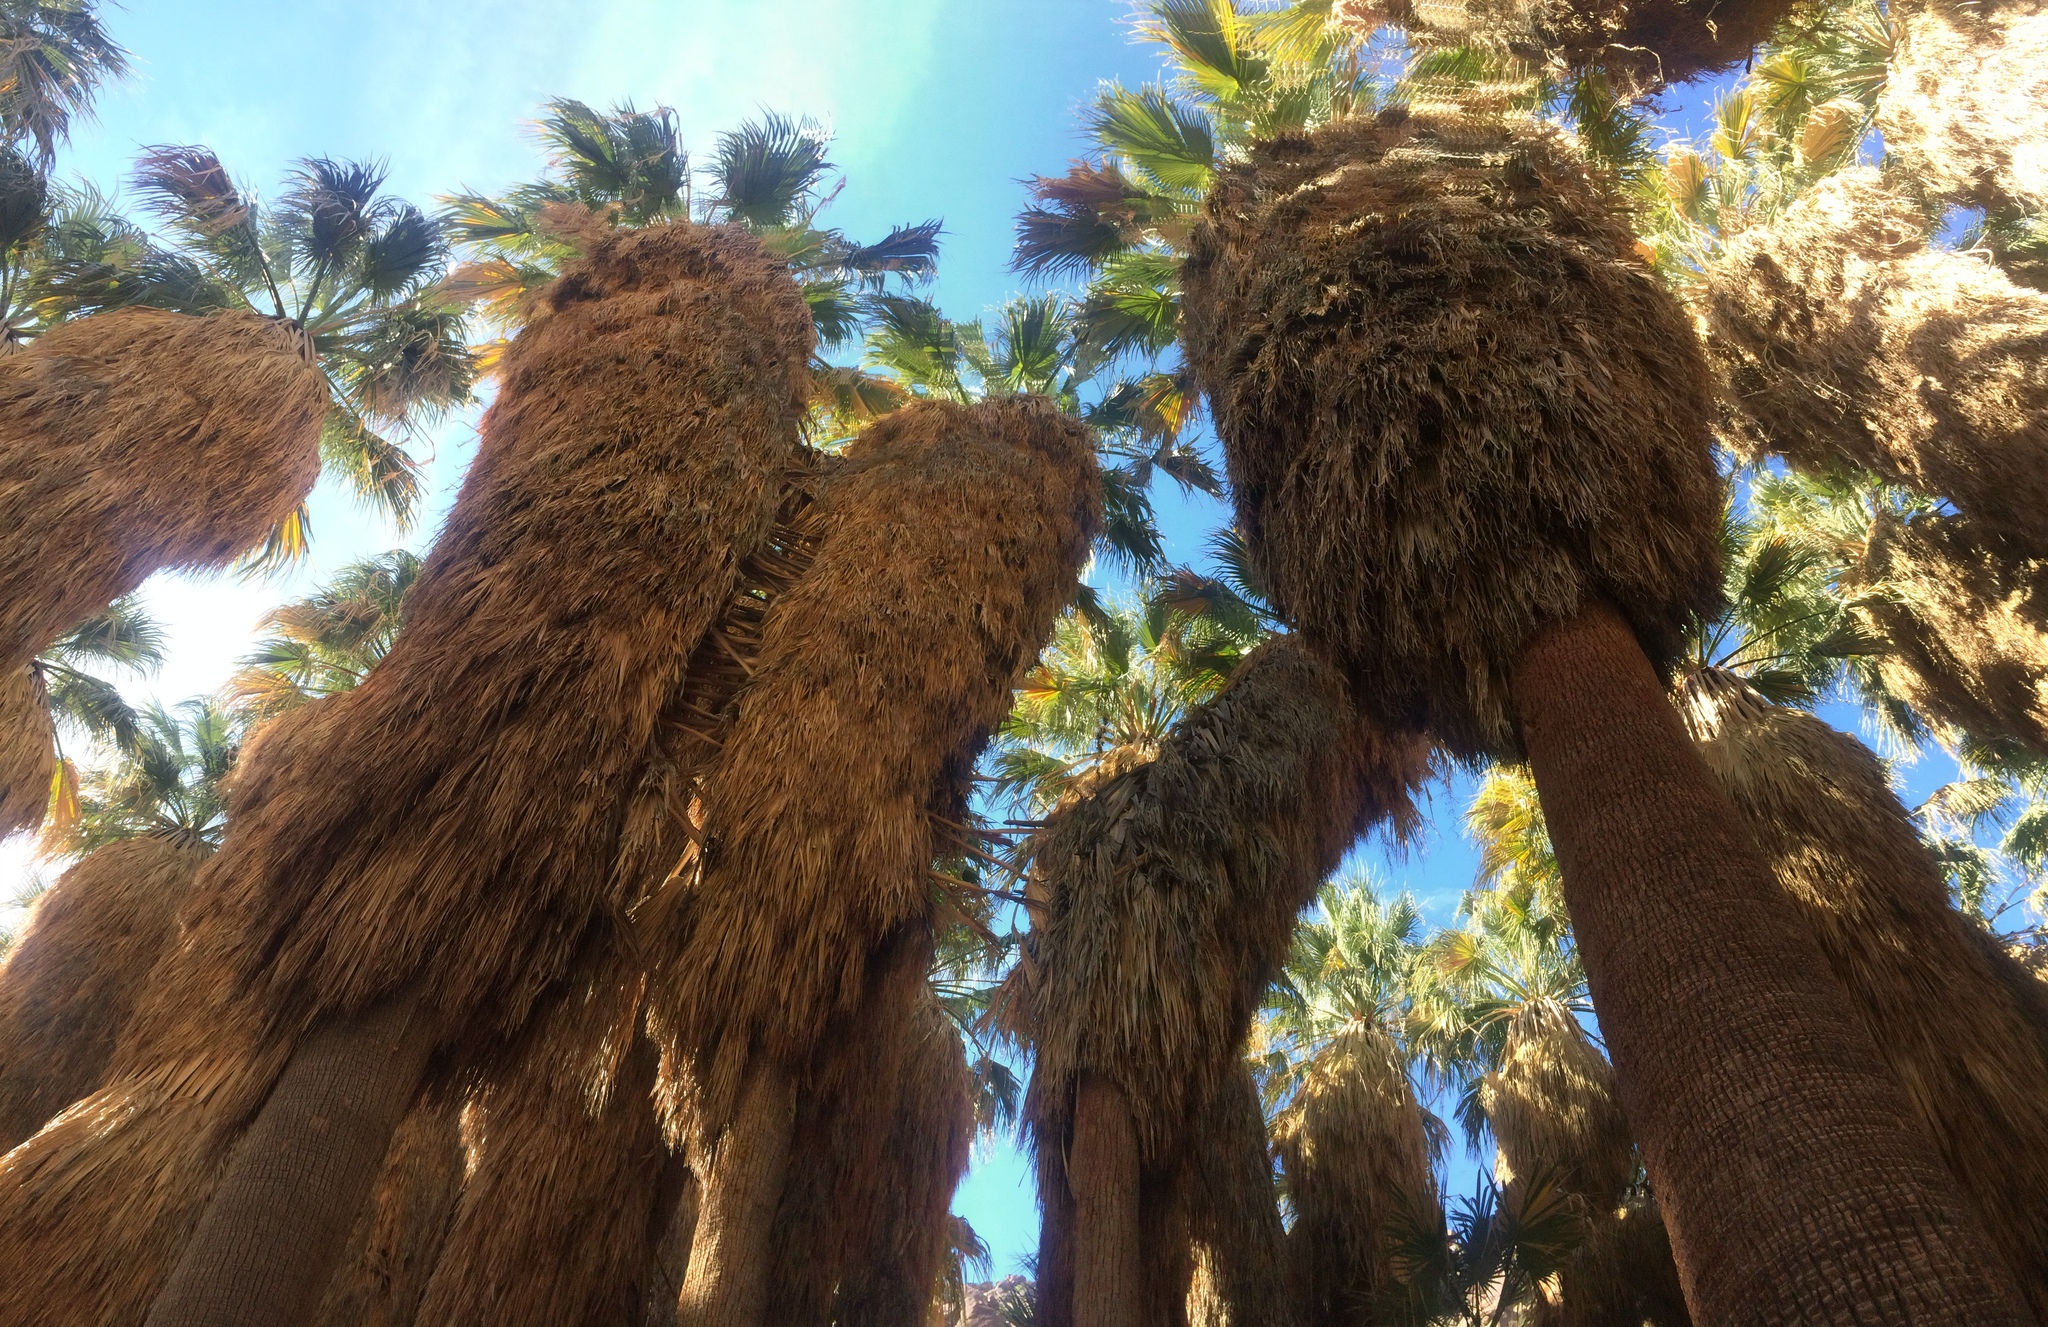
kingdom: Plantae
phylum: Tracheophyta
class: Liliopsida
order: Arecales
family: Arecaceae
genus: Washingtonia
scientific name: Washingtonia filifera
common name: California fan palm
